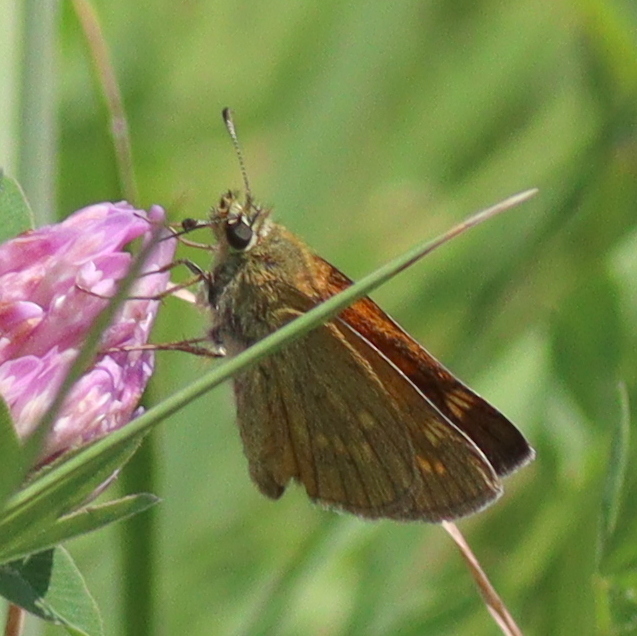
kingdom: Animalia
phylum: Arthropoda
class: Insecta
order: Lepidoptera
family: Hesperiidae
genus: Ochlodes
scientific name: Ochlodes venata
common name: Large skipper
